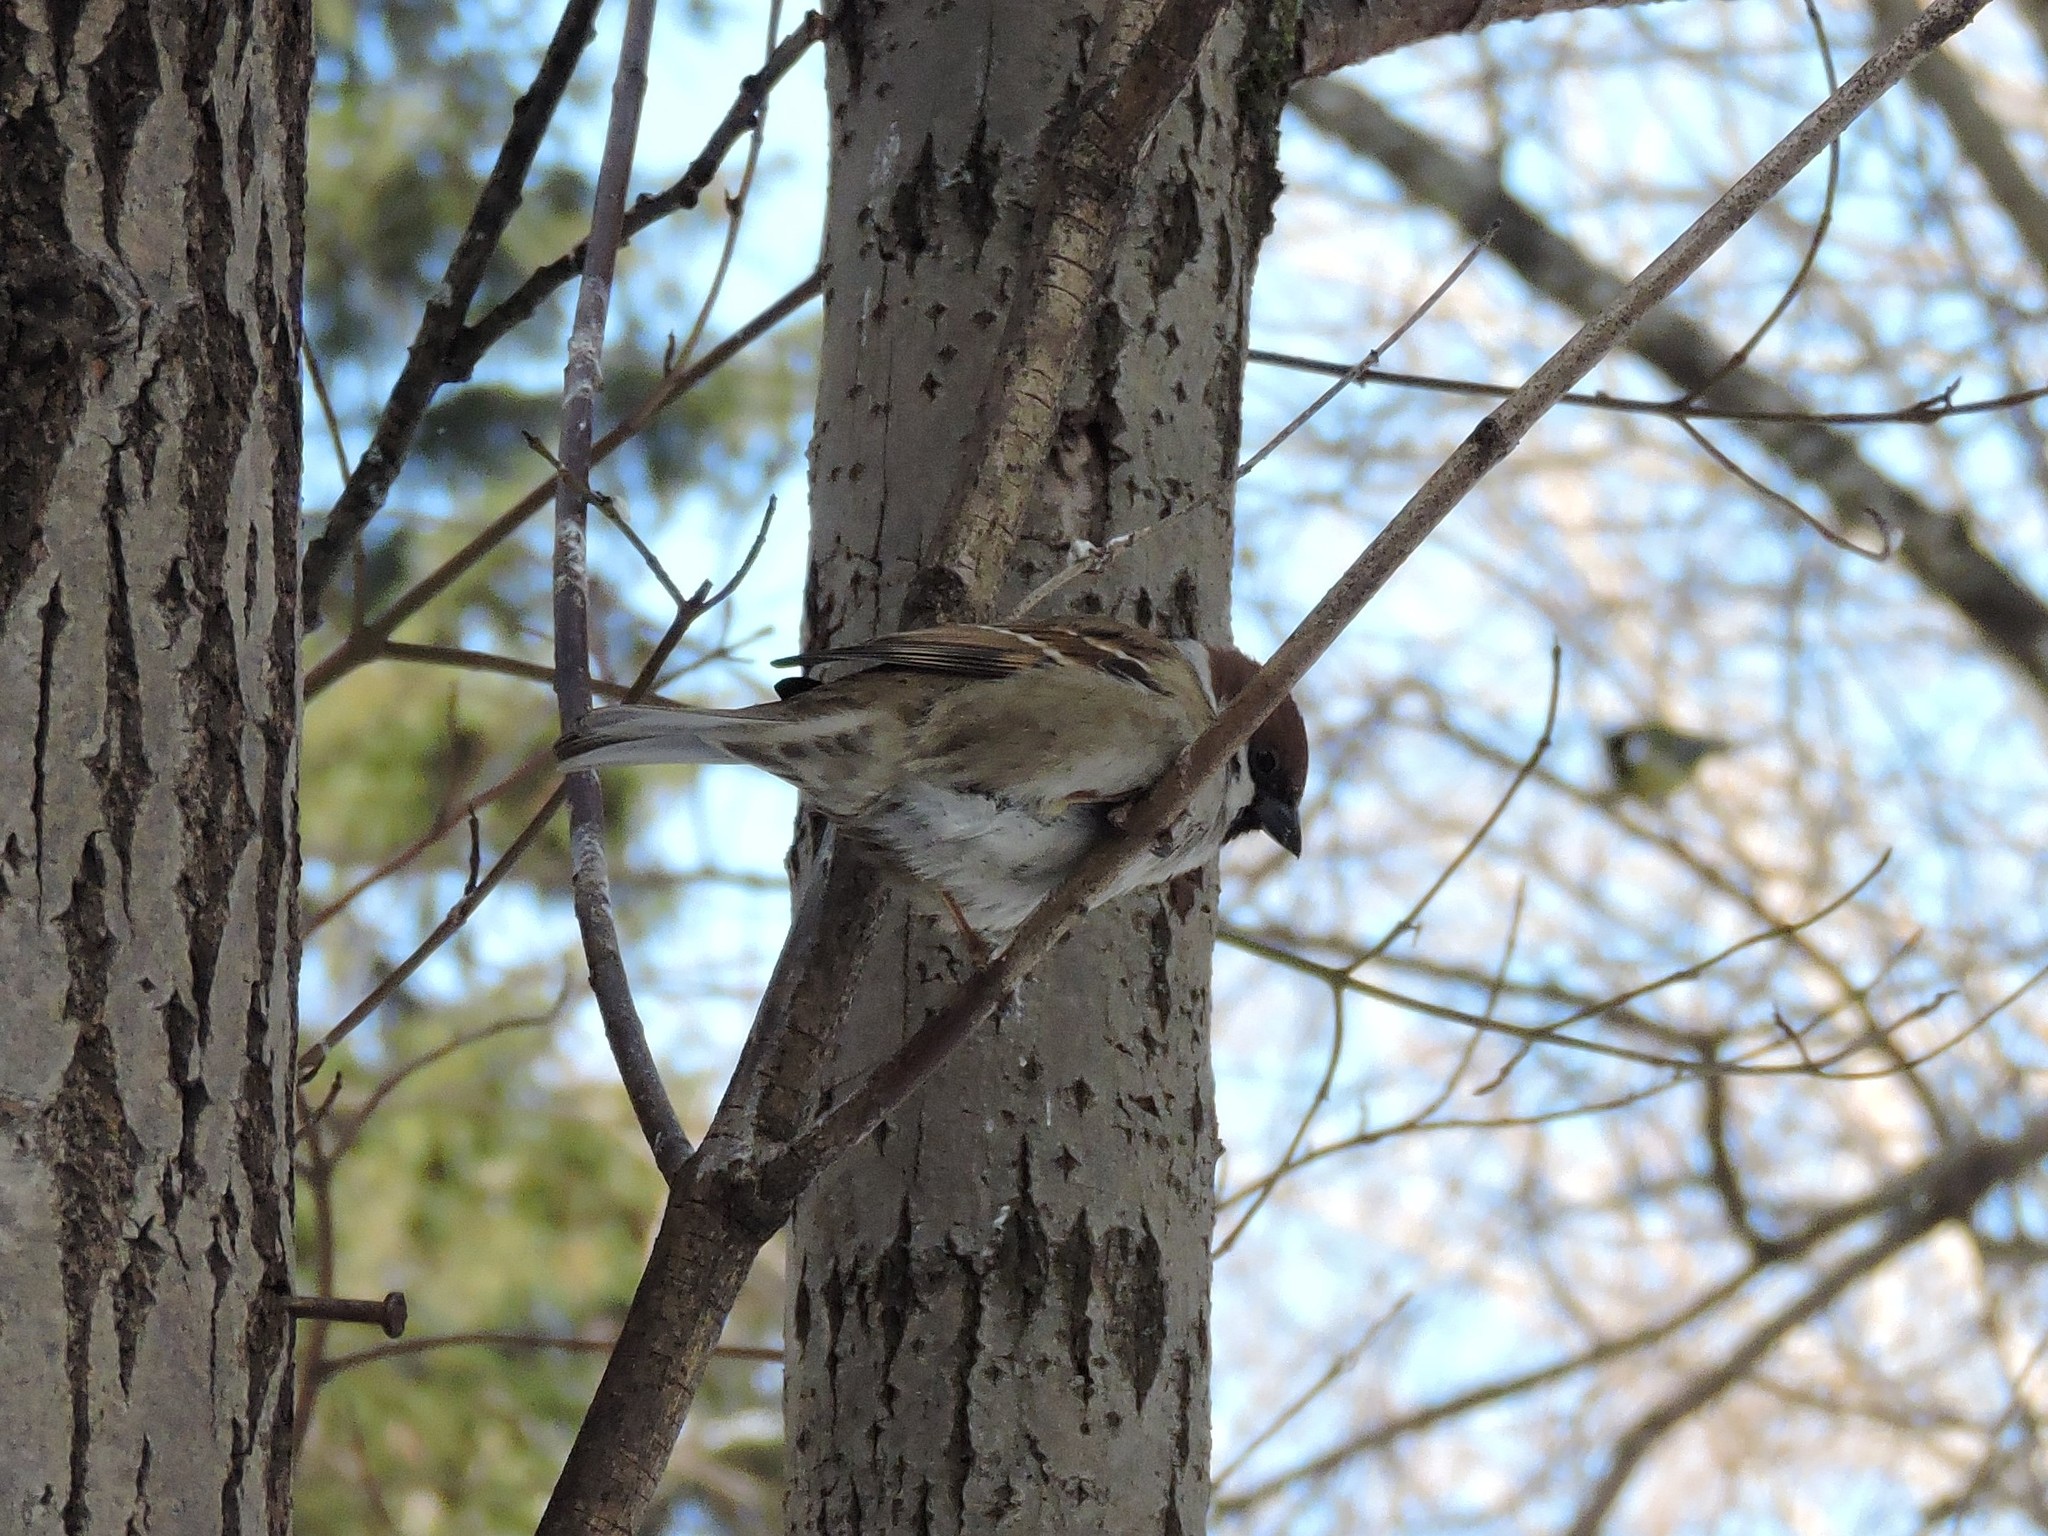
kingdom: Animalia
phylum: Chordata
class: Aves
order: Passeriformes
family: Passeridae
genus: Passer
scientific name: Passer montanus
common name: Eurasian tree sparrow
